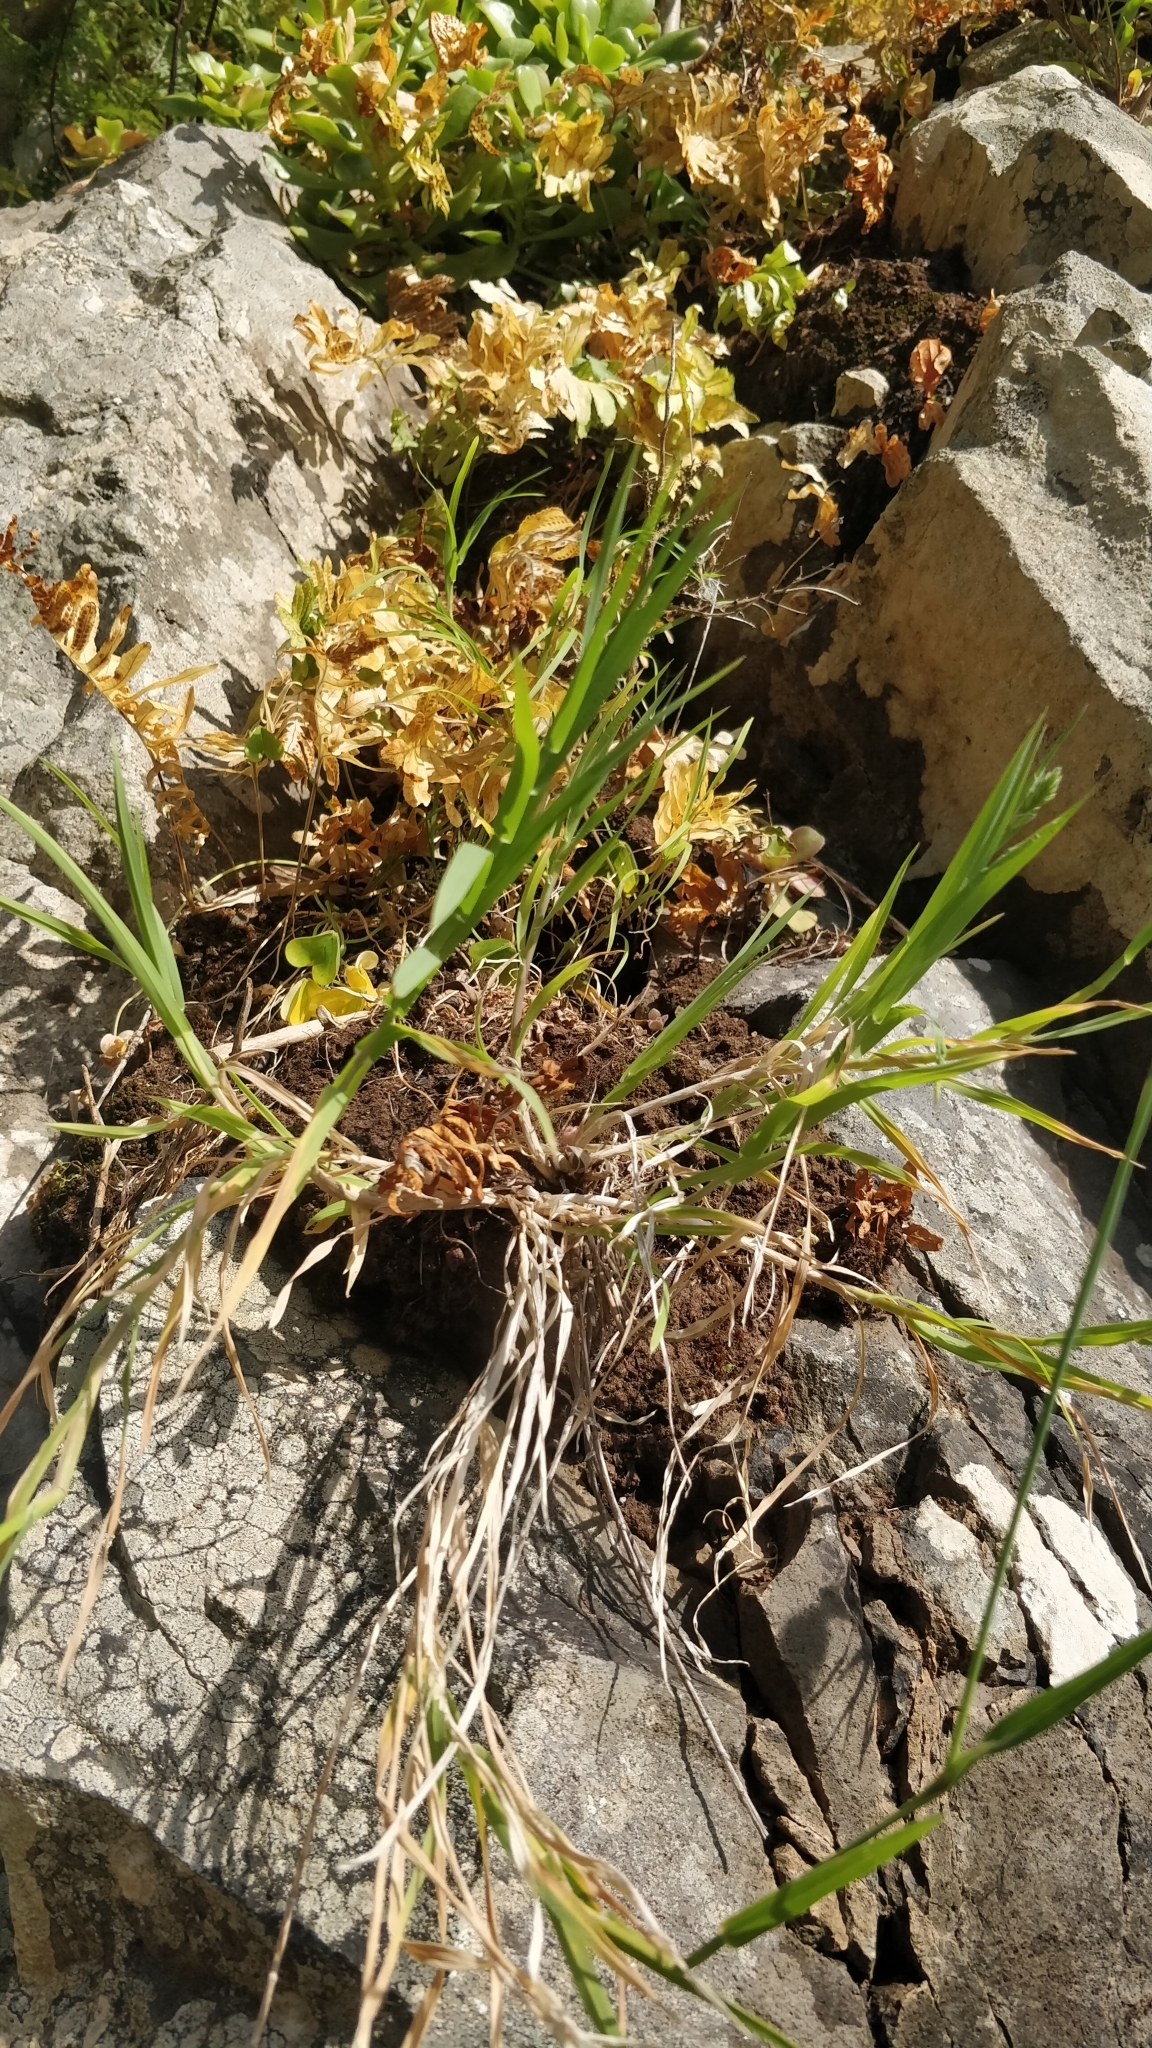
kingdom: Plantae
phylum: Tracheophyta
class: Liliopsida
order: Poales
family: Poaceae
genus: Dactylis
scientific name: Dactylis glomerata
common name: Orchardgrass
